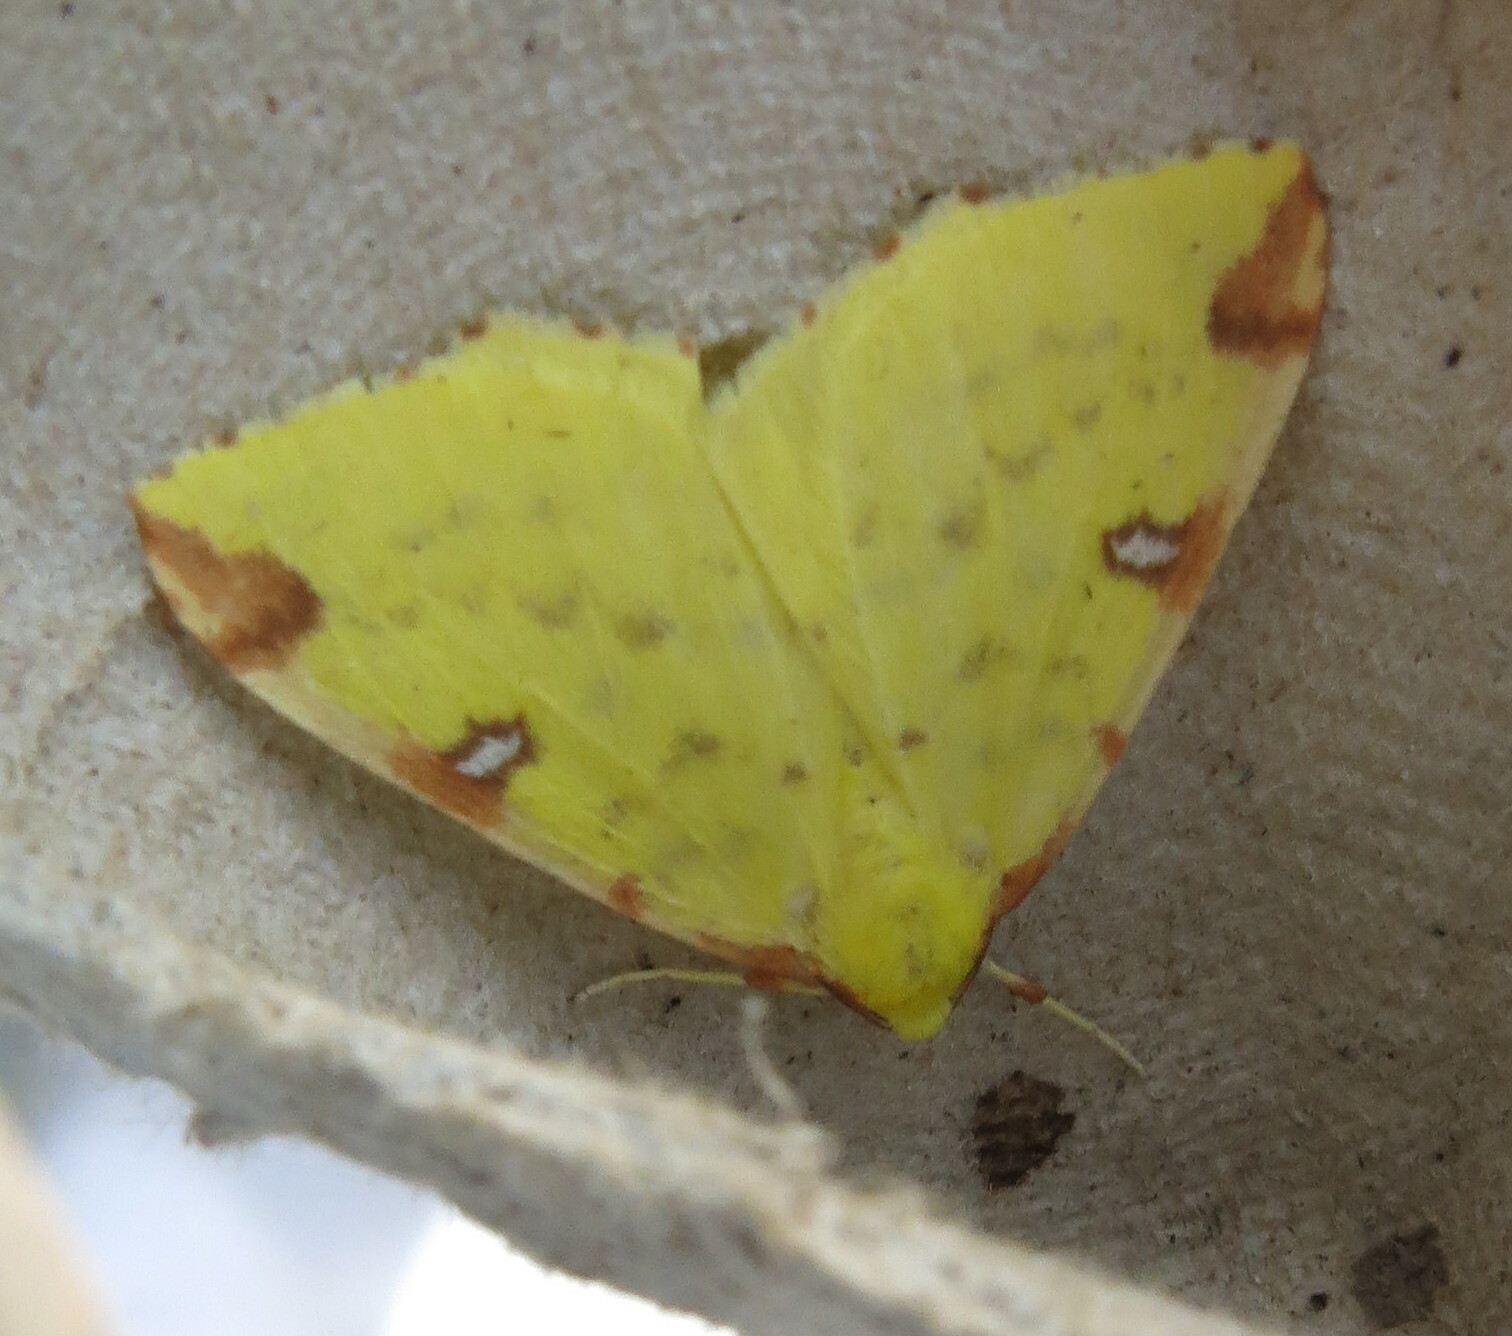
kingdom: Animalia
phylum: Arthropoda
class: Insecta
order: Lepidoptera
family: Geometridae
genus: Opisthograptis
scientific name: Opisthograptis luteolata
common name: Brimstone moth
